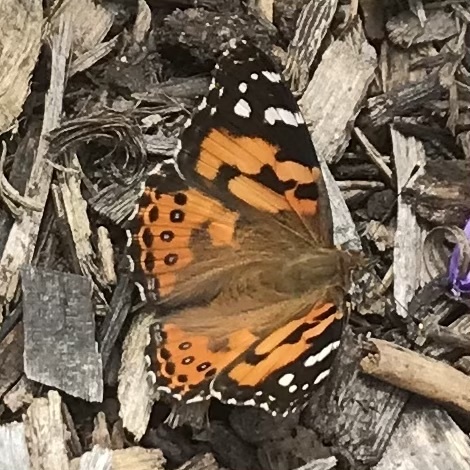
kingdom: Animalia
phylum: Arthropoda
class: Insecta
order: Lepidoptera
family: Nymphalidae
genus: Vanessa
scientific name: Vanessa kershawi
